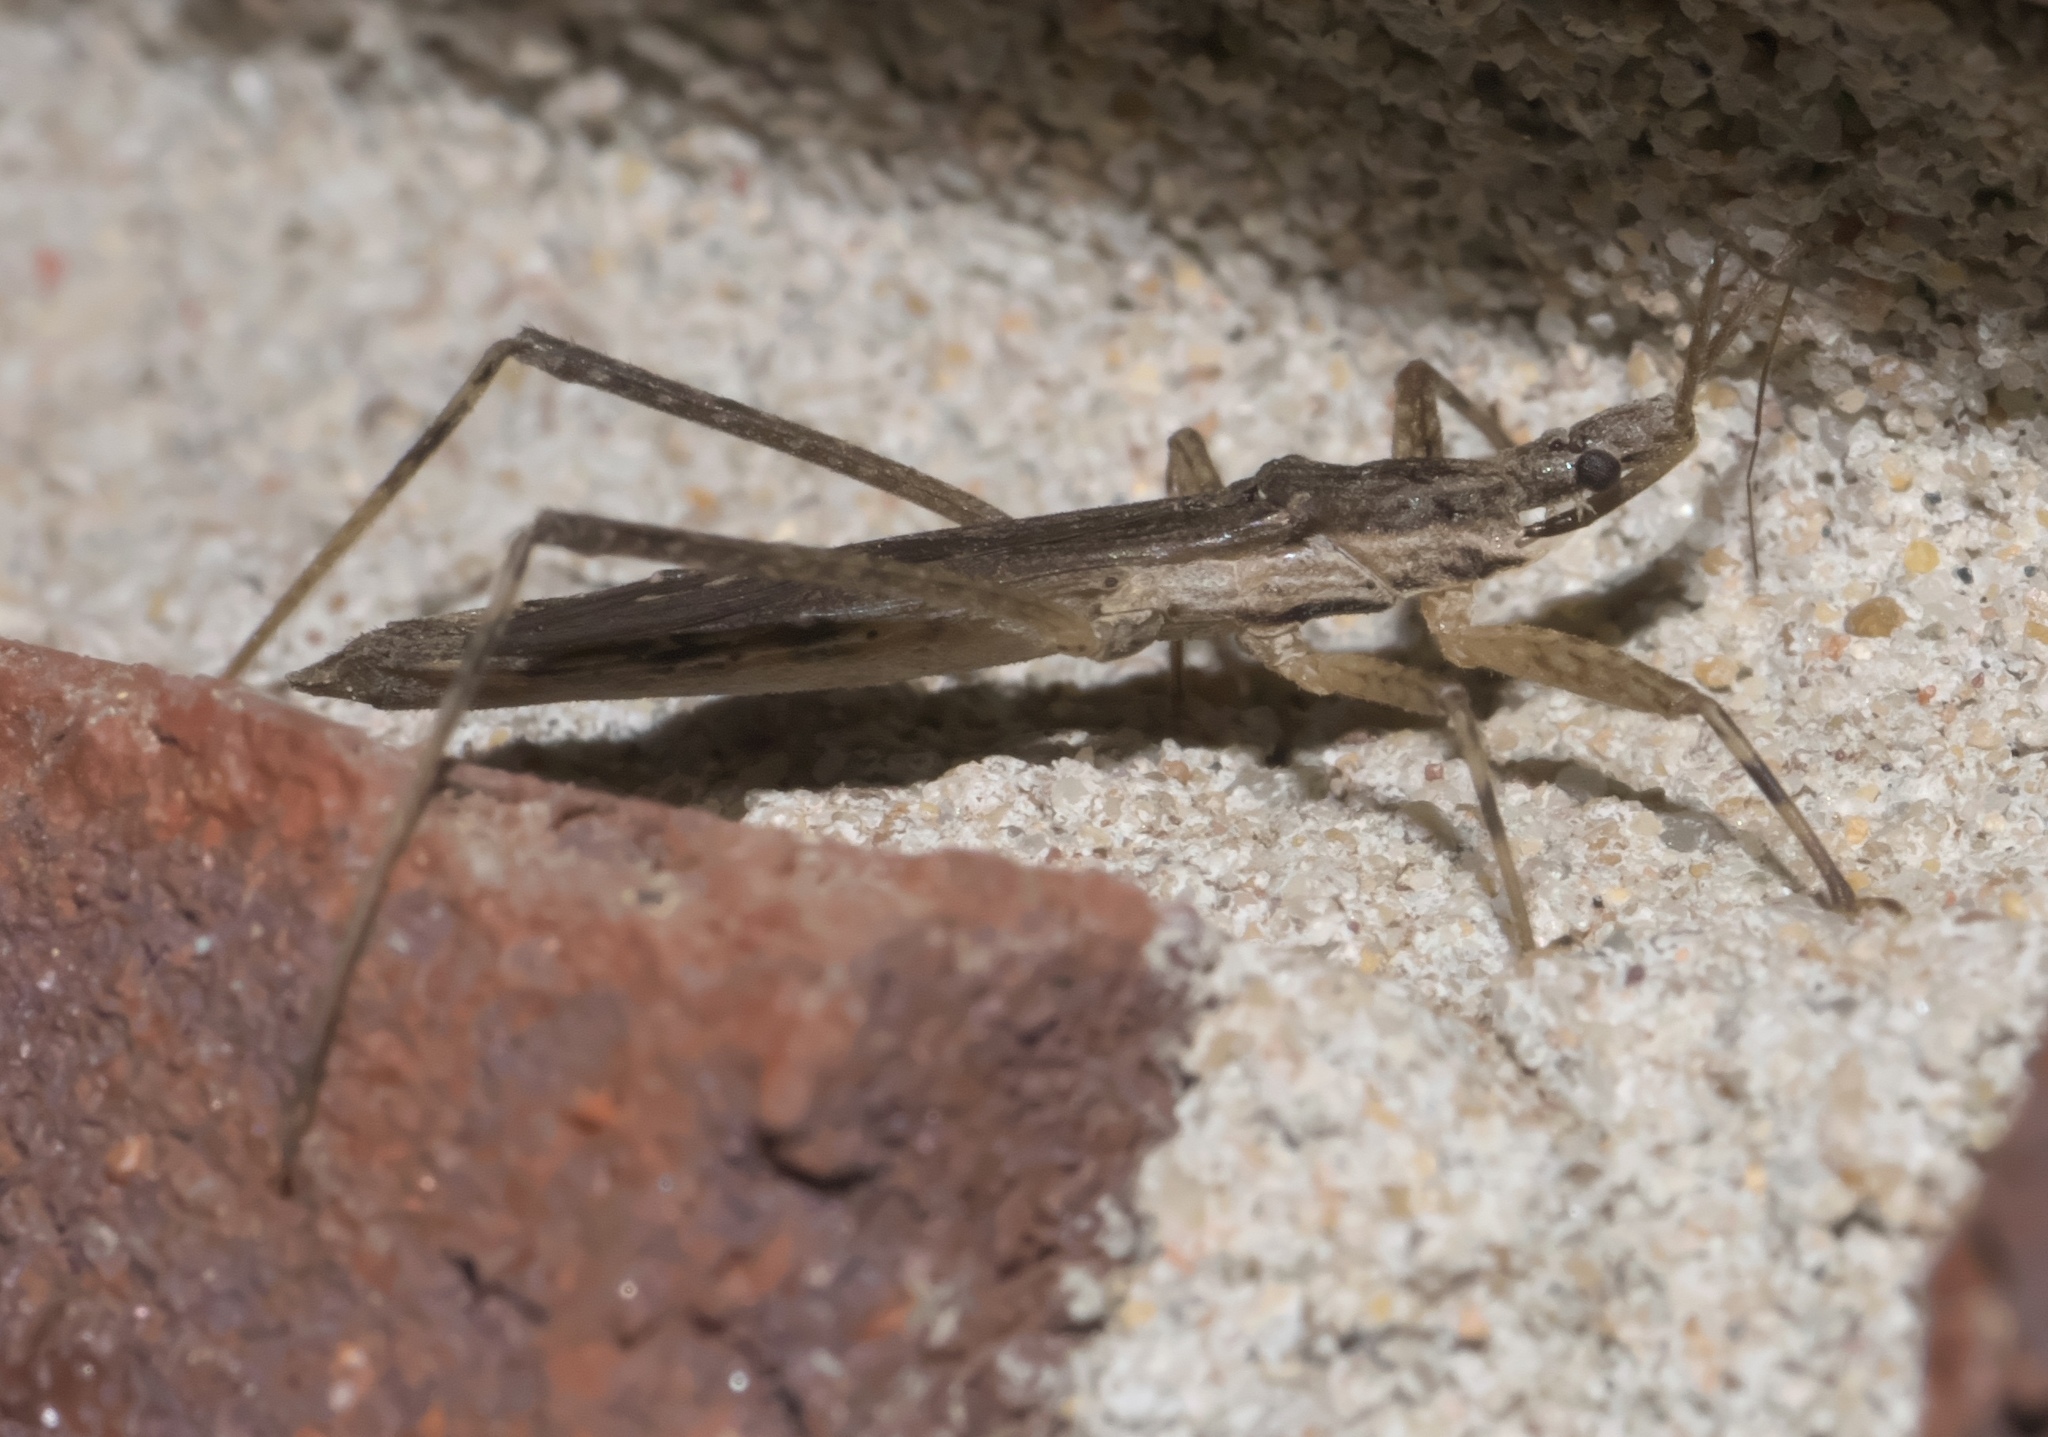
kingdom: Animalia
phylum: Arthropoda
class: Insecta
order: Hemiptera
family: Reduviidae
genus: Pygolampis
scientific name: Pygolampis pectoralis
